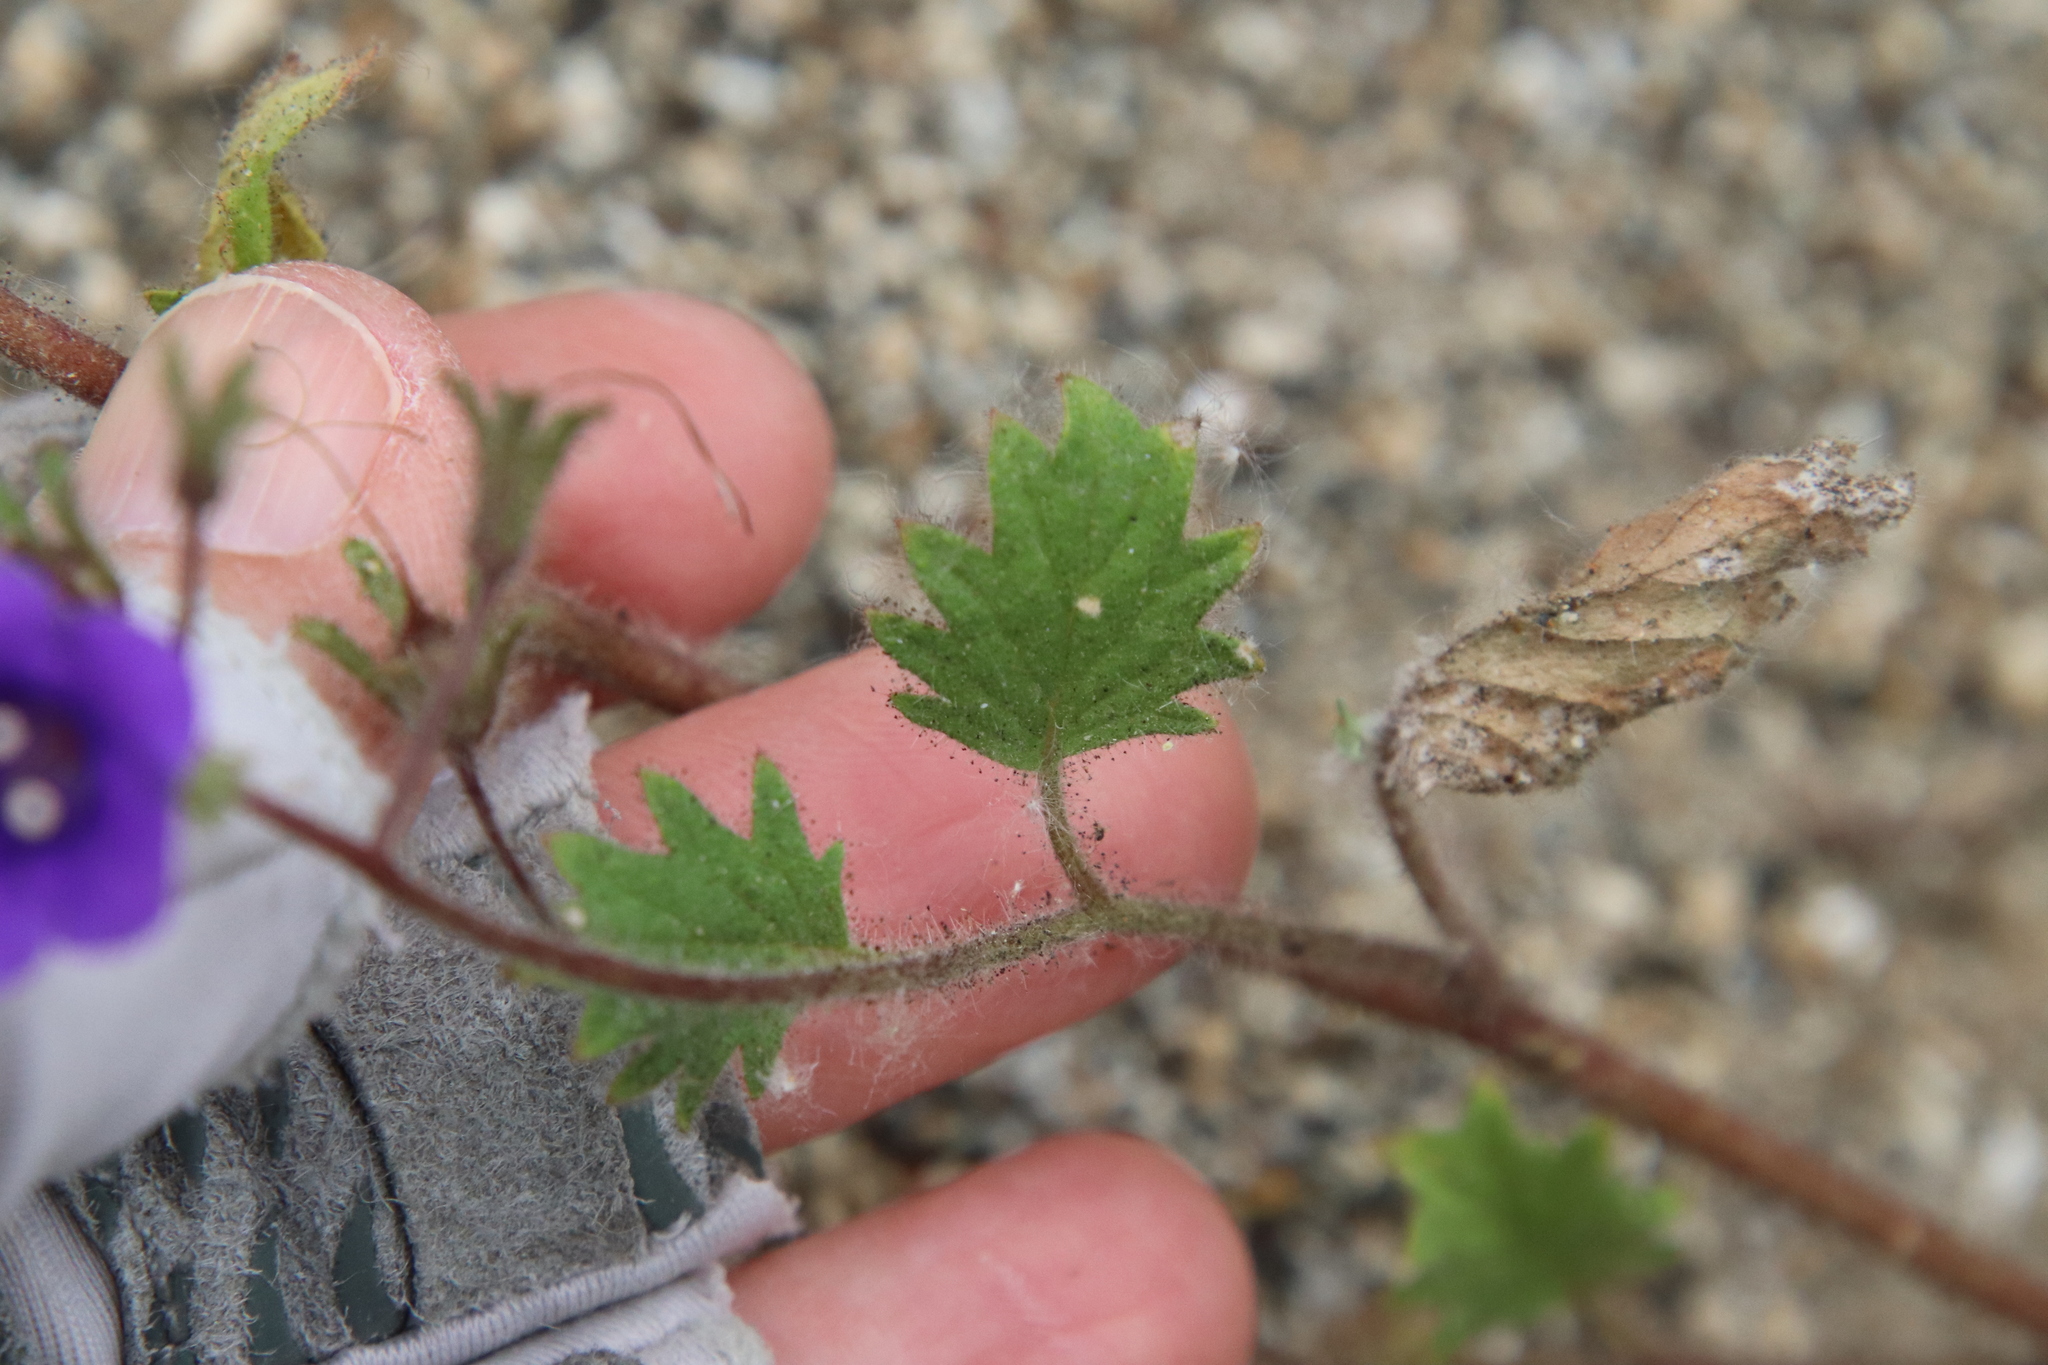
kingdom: Plantae
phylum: Tracheophyta
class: Magnoliopsida
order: Boraginales
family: Hydrophyllaceae
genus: Phacelia
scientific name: Phacelia minor
